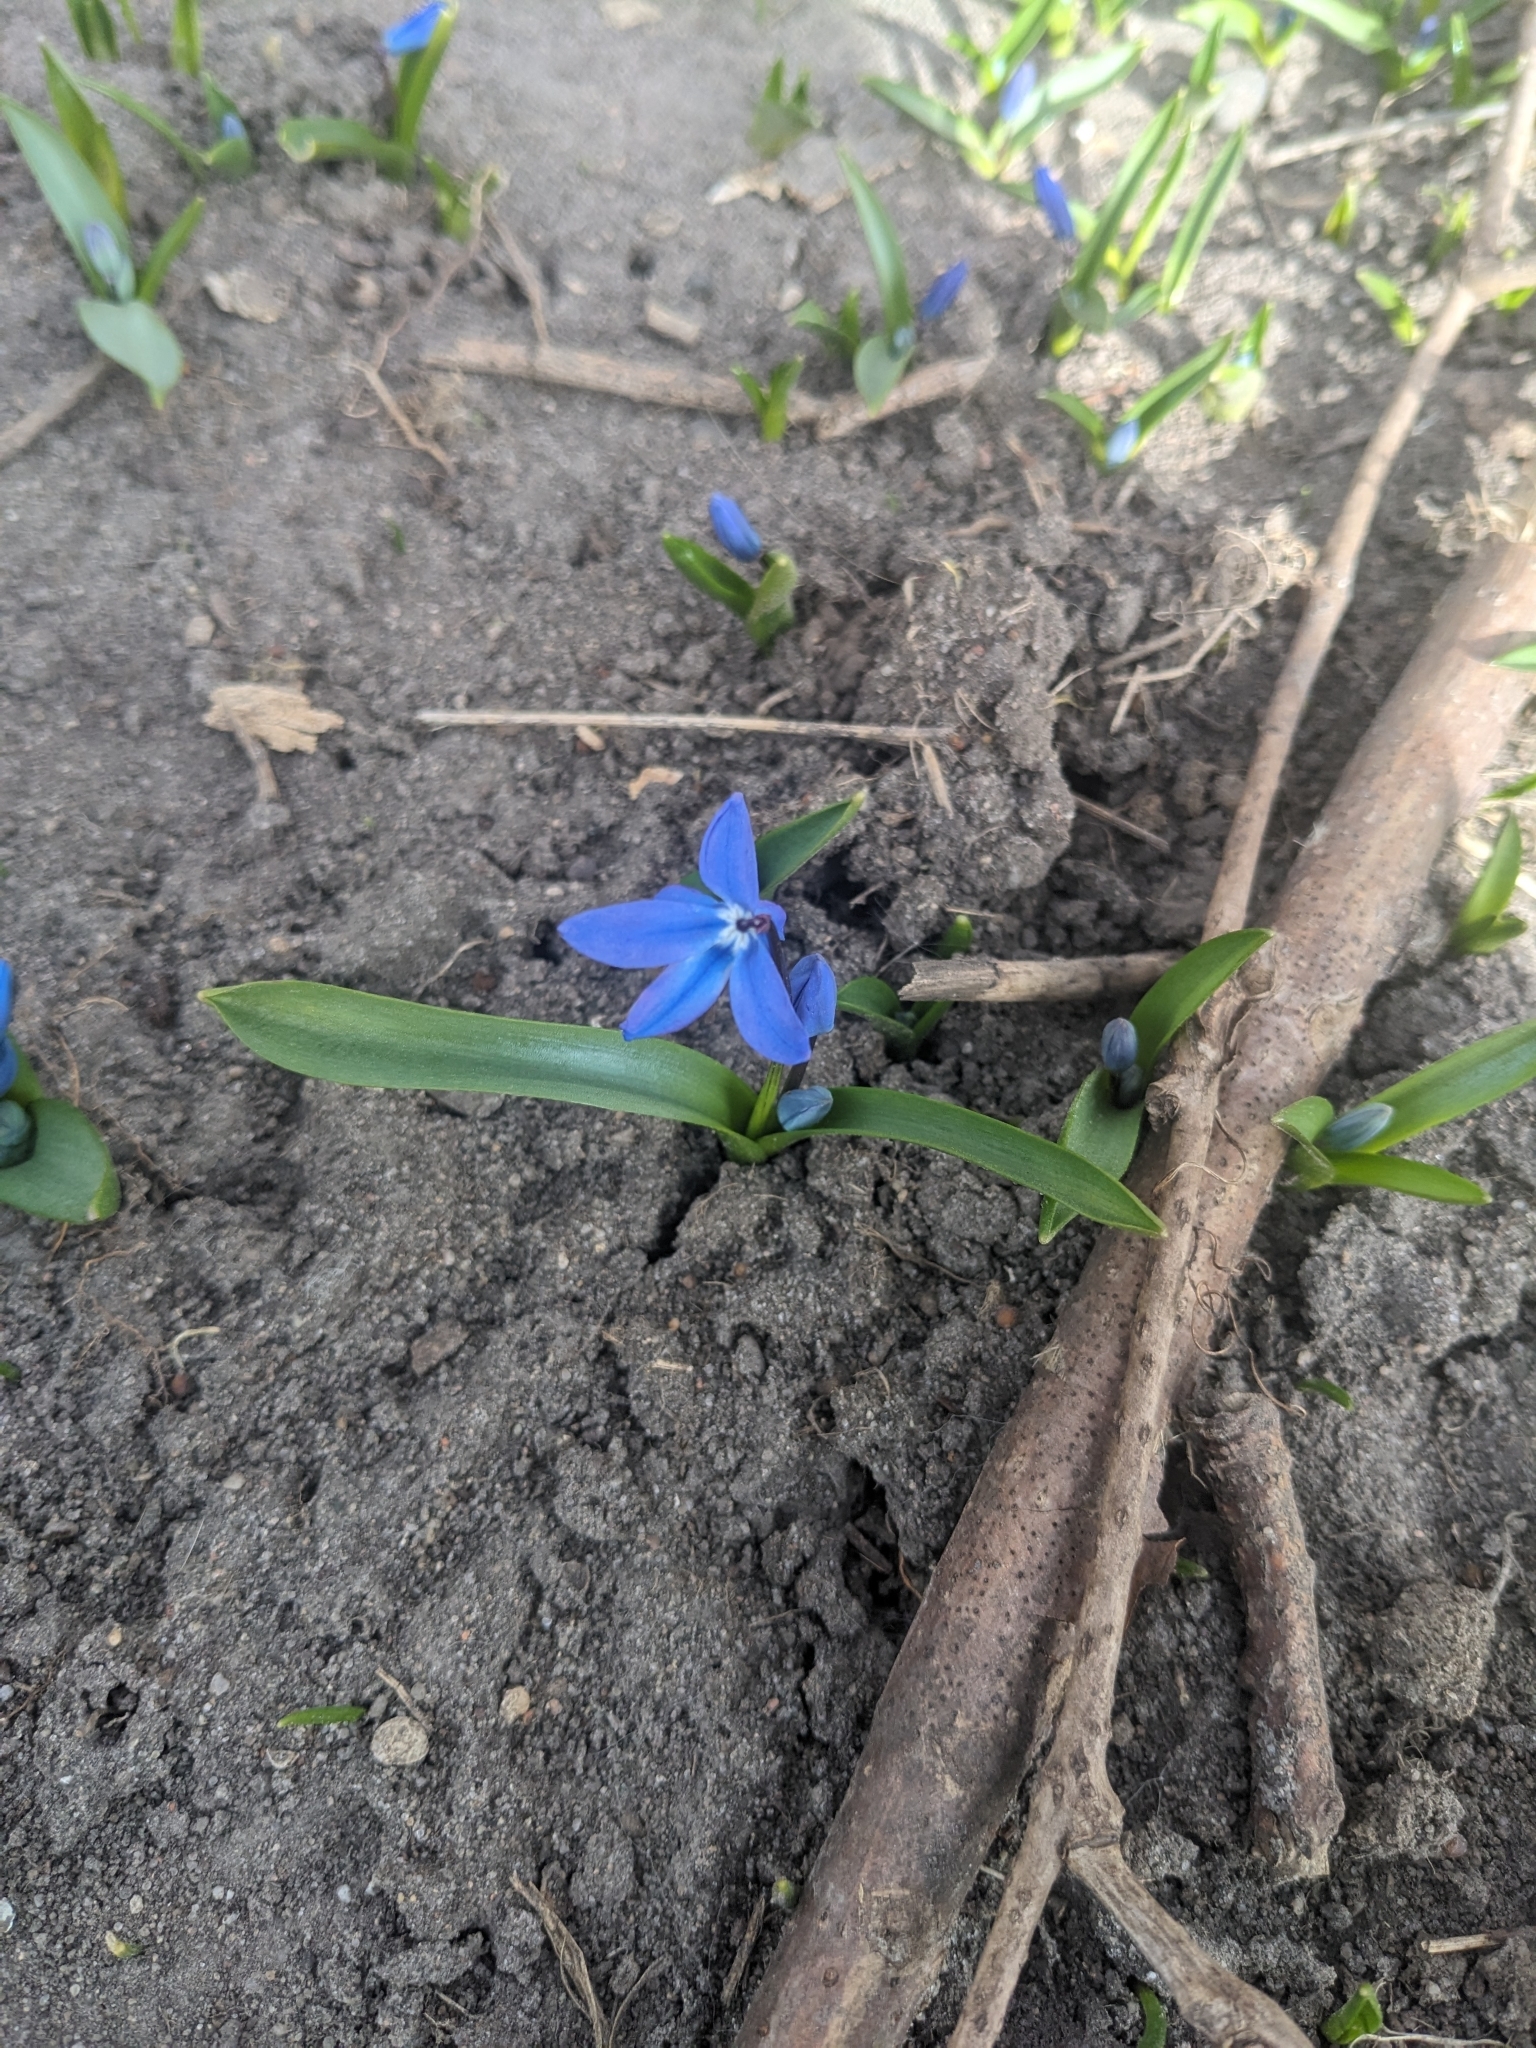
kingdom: Plantae
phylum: Tracheophyta
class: Liliopsida
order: Asparagales
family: Asparagaceae
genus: Scilla
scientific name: Scilla siberica
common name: Siberian squill
